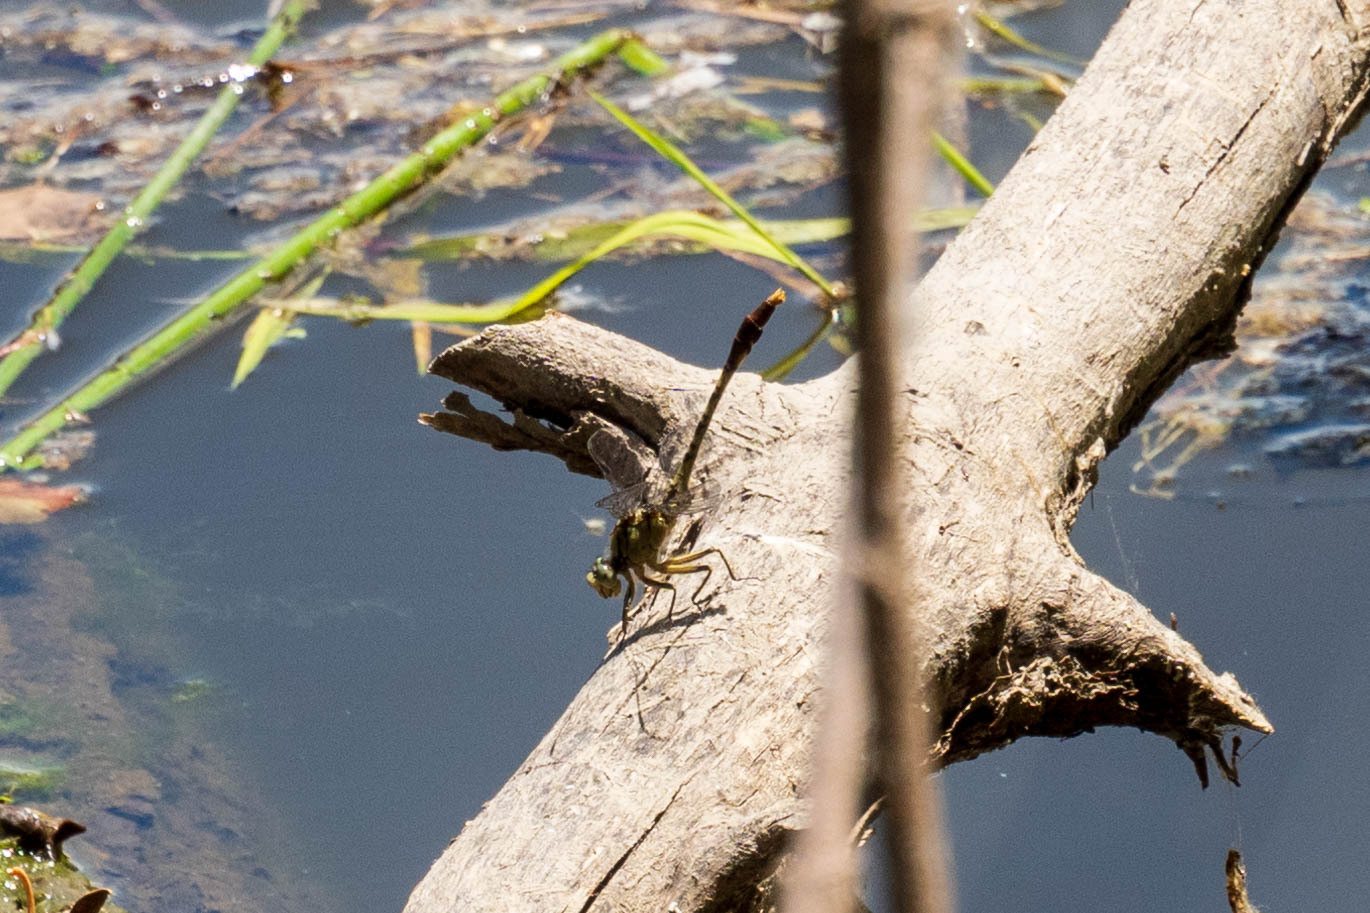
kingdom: Animalia
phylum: Arthropoda
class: Insecta
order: Odonata
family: Gomphidae
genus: Arigomphus
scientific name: Arigomphus submedianus
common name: Jade clubtail
